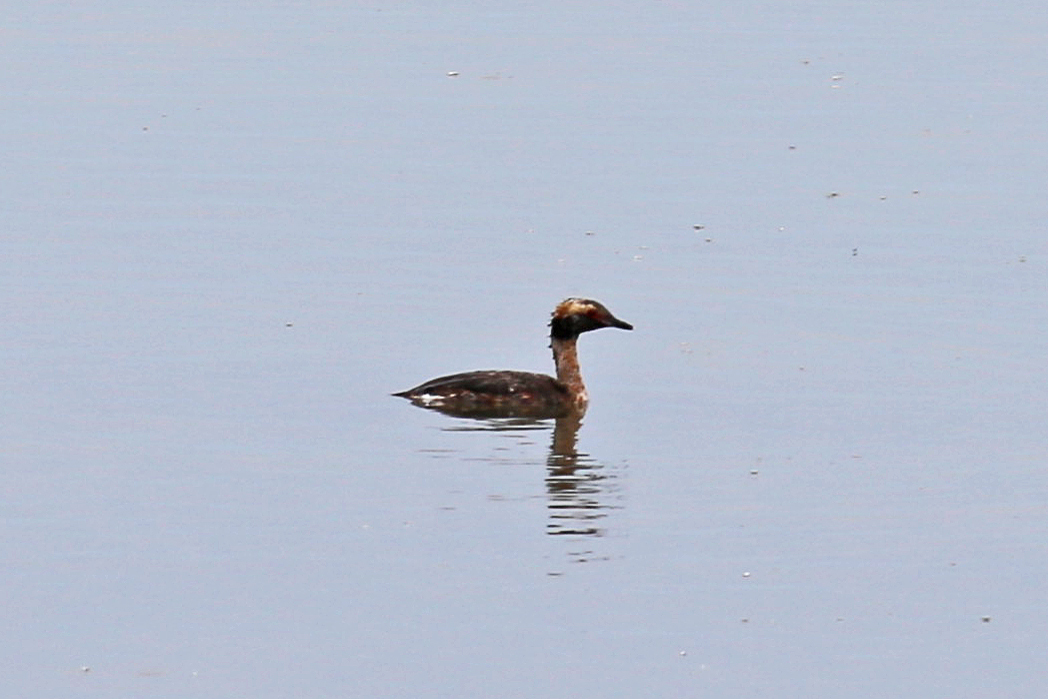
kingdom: Animalia
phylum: Chordata
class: Aves
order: Podicipediformes
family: Podicipedidae
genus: Podiceps
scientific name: Podiceps auritus
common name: Horned grebe
